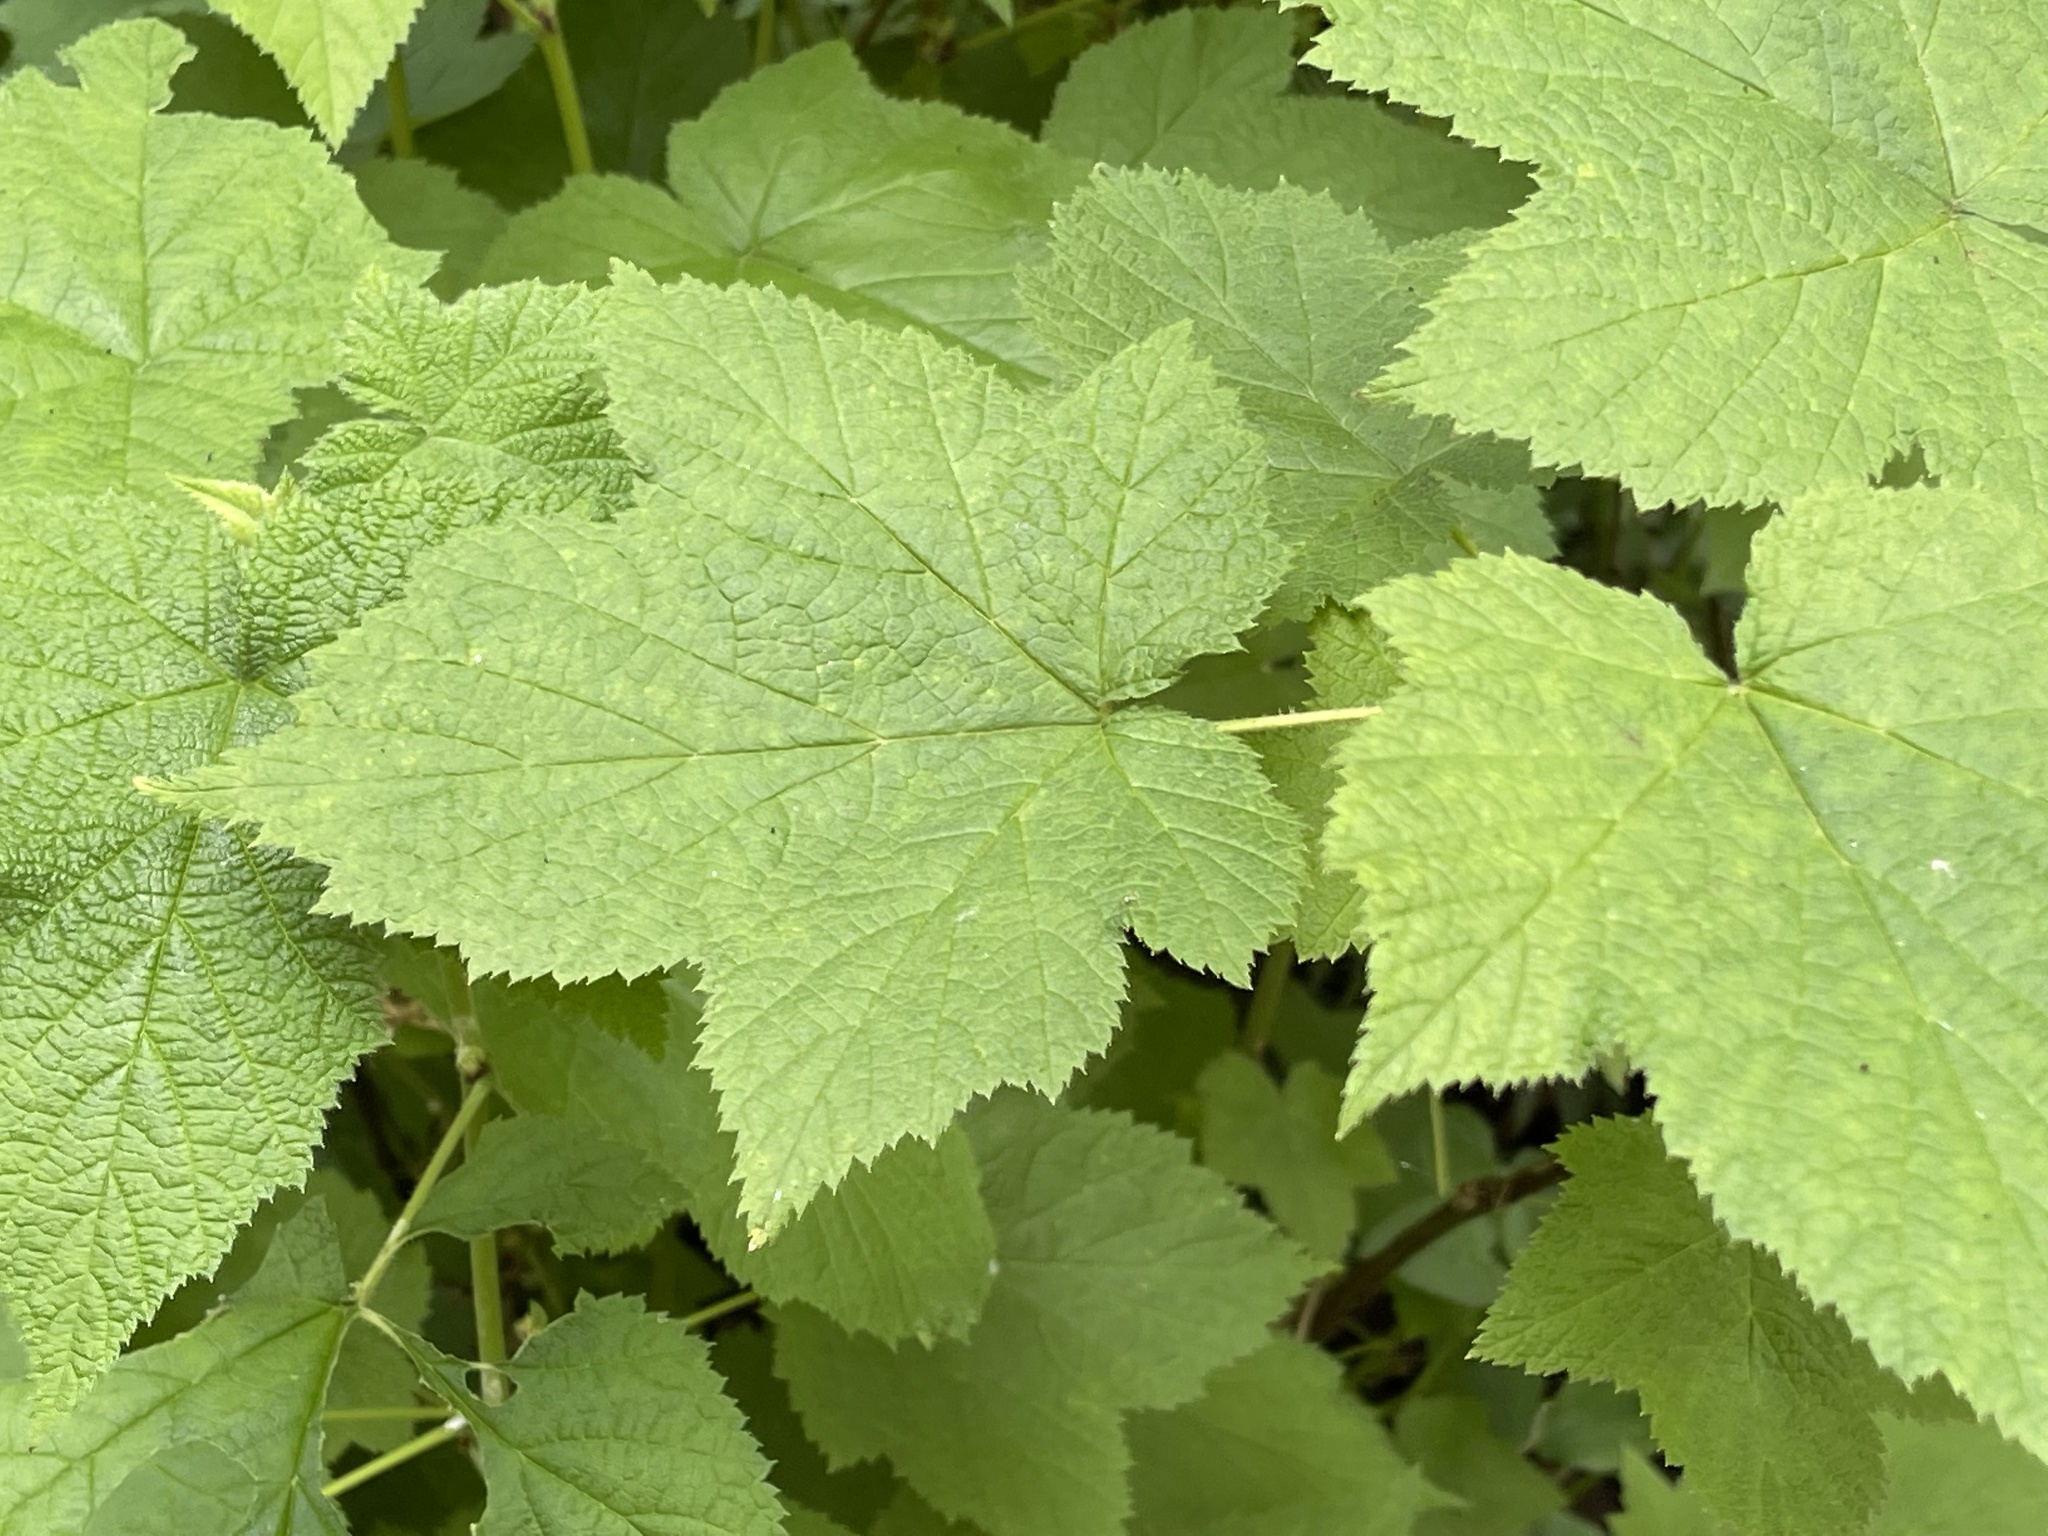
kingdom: Plantae
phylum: Tracheophyta
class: Magnoliopsida
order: Rosales
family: Rosaceae
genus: Rubus
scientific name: Rubus parviflorus
